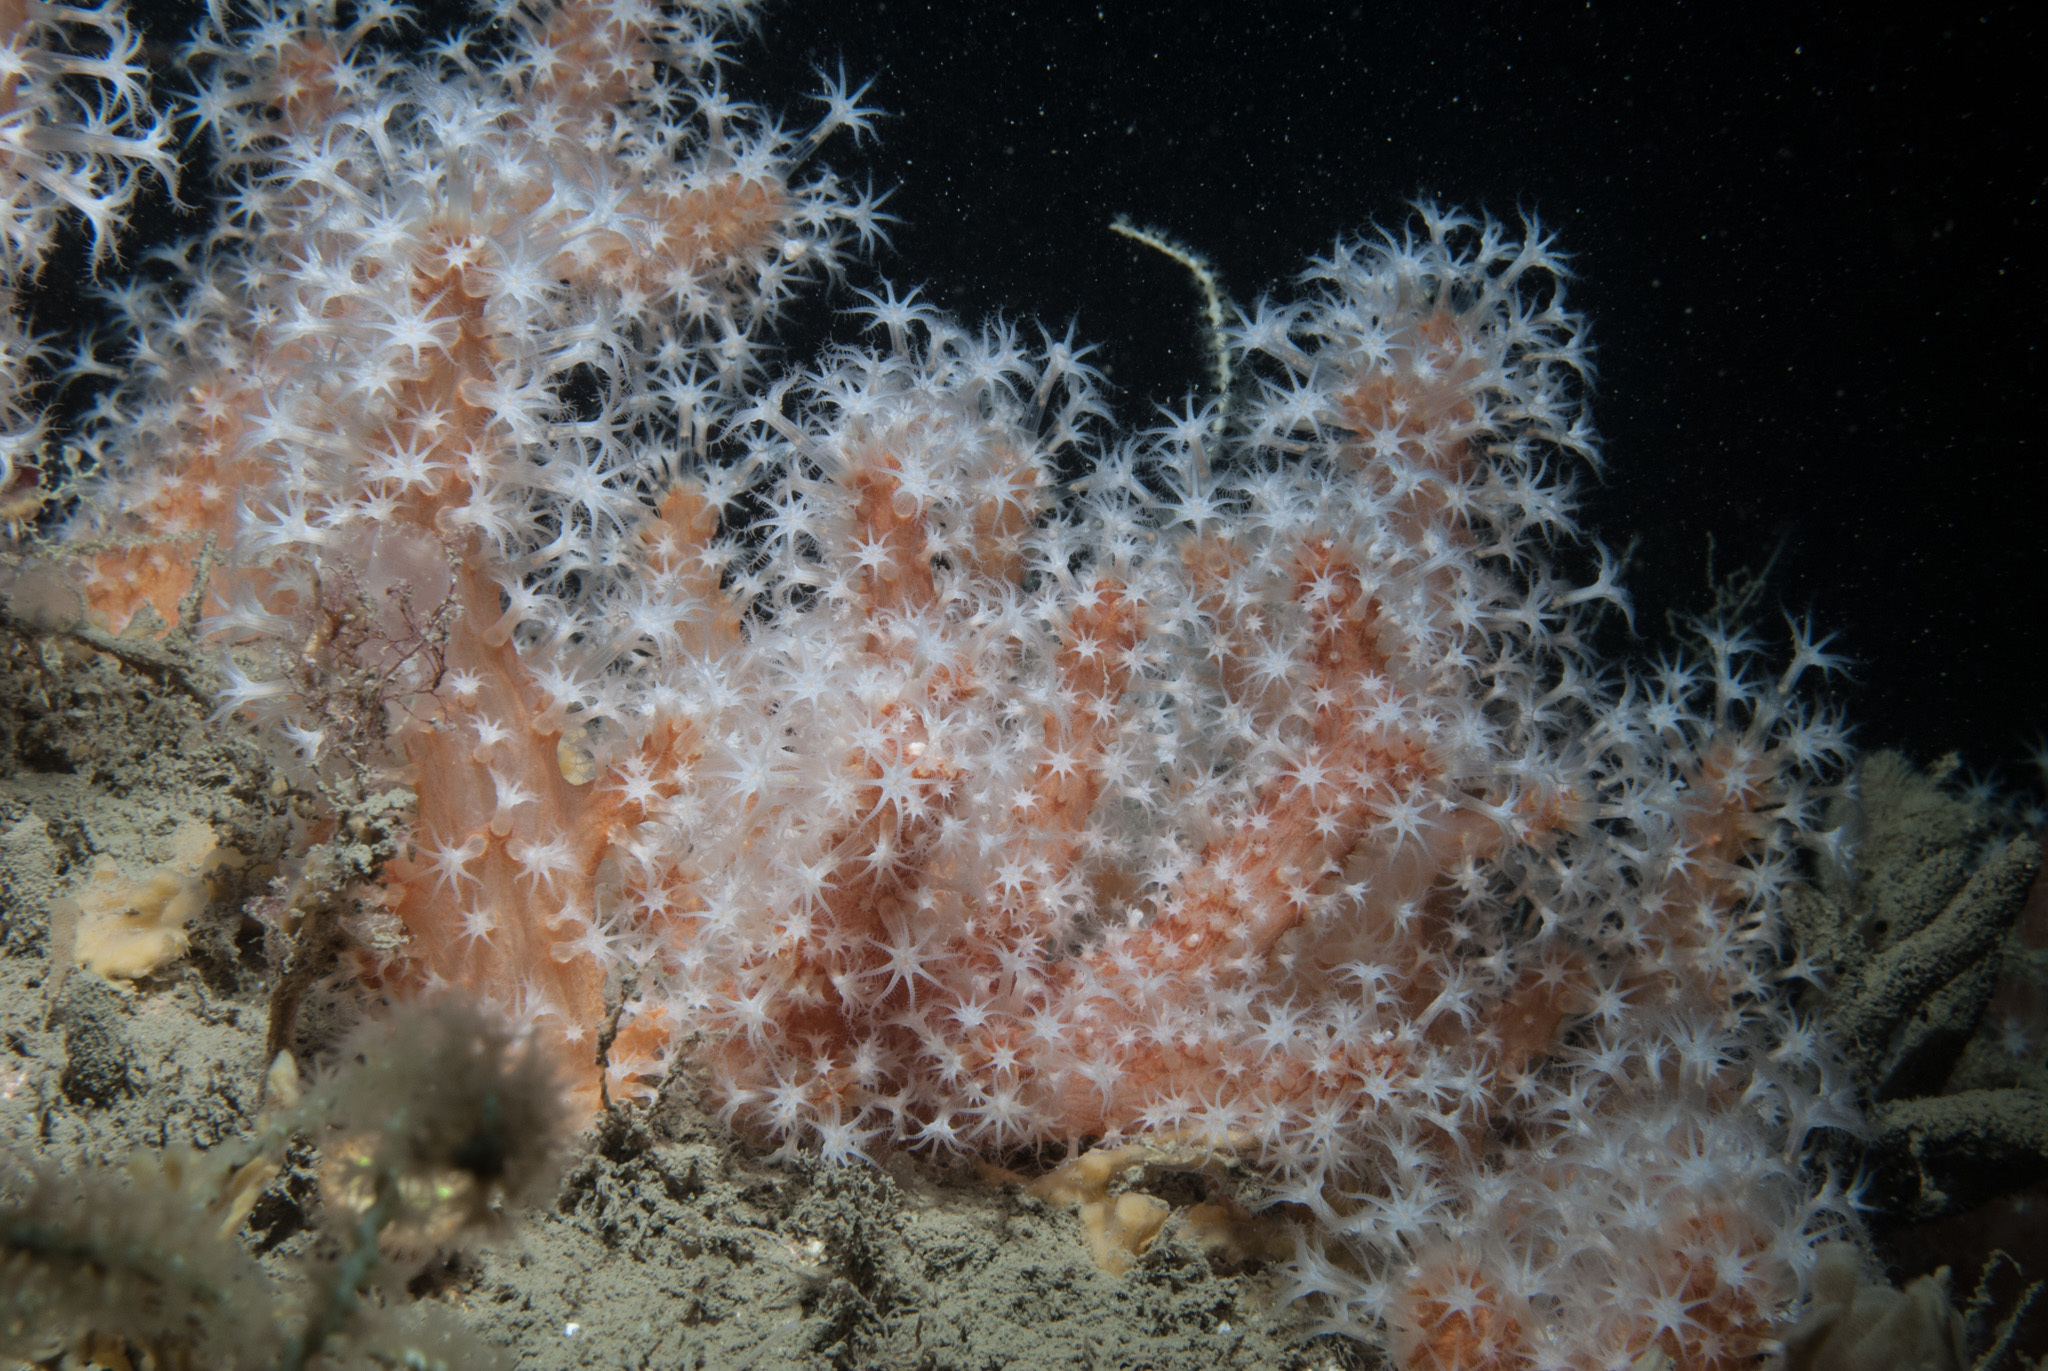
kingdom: Animalia
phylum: Cnidaria
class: Anthozoa
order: Malacalcyonacea
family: Alcyoniidae
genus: Alcyonium
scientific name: Alcyonium glomeratum
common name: Red fingers
